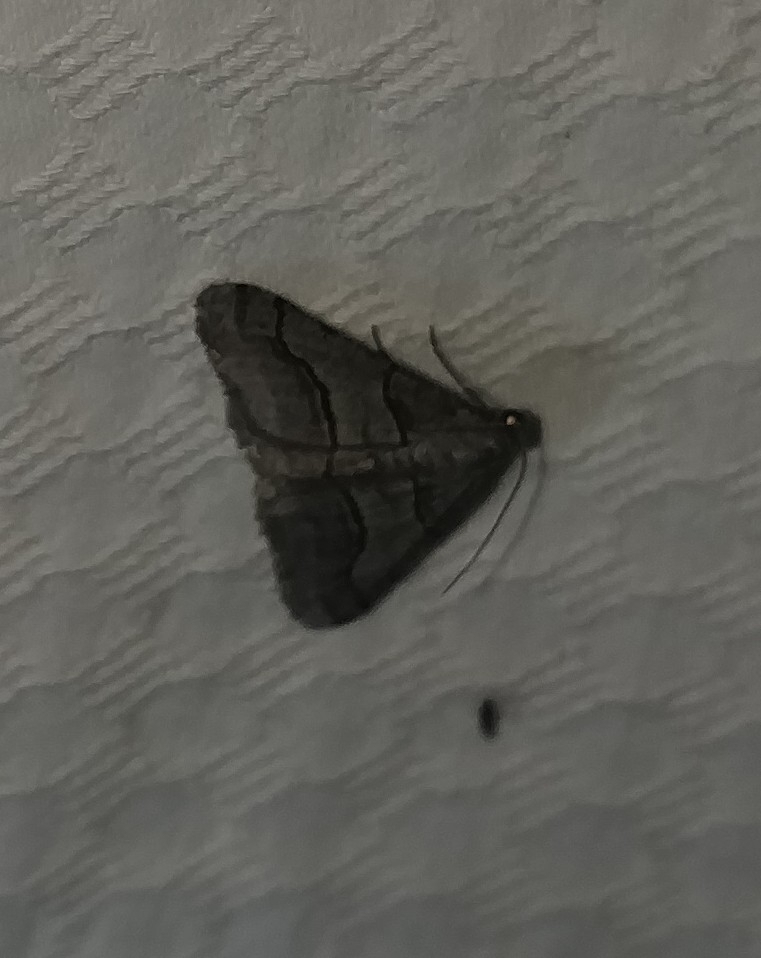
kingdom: Animalia
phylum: Arthropoda
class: Insecta
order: Lepidoptera
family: Geometridae
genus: Digrammia
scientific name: Digrammia continuata
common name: Curve-lined angle
